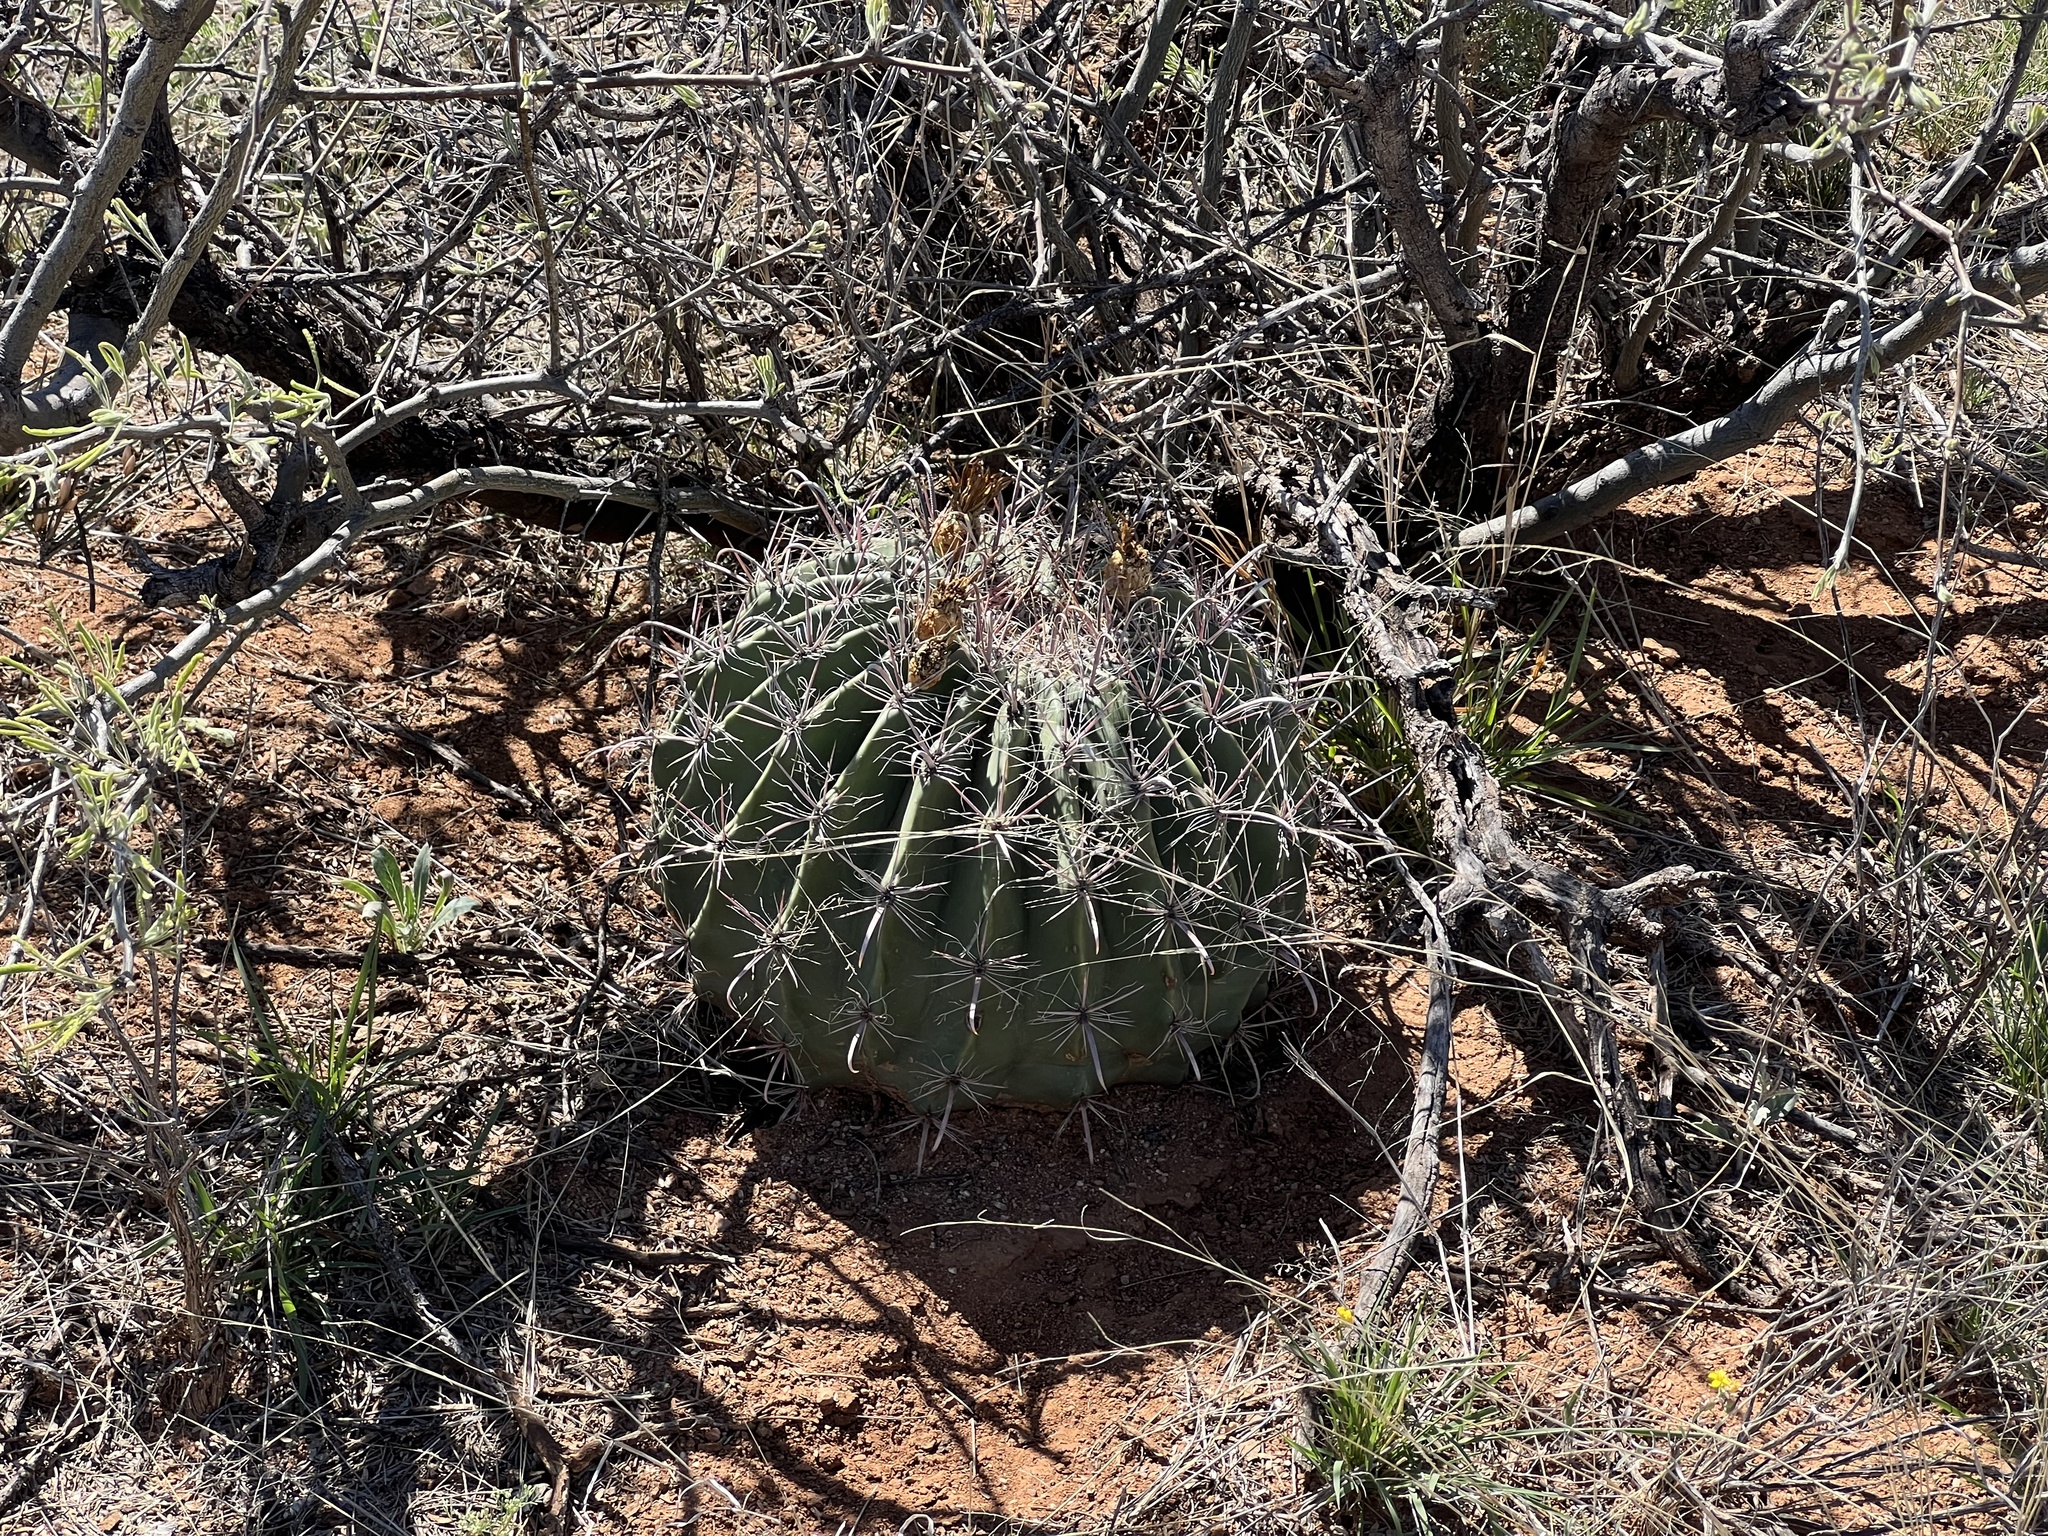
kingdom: Plantae
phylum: Tracheophyta
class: Magnoliopsida
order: Caryophyllales
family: Cactaceae
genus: Ferocactus
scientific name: Ferocactus wislizeni
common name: Candy barrel cactus
